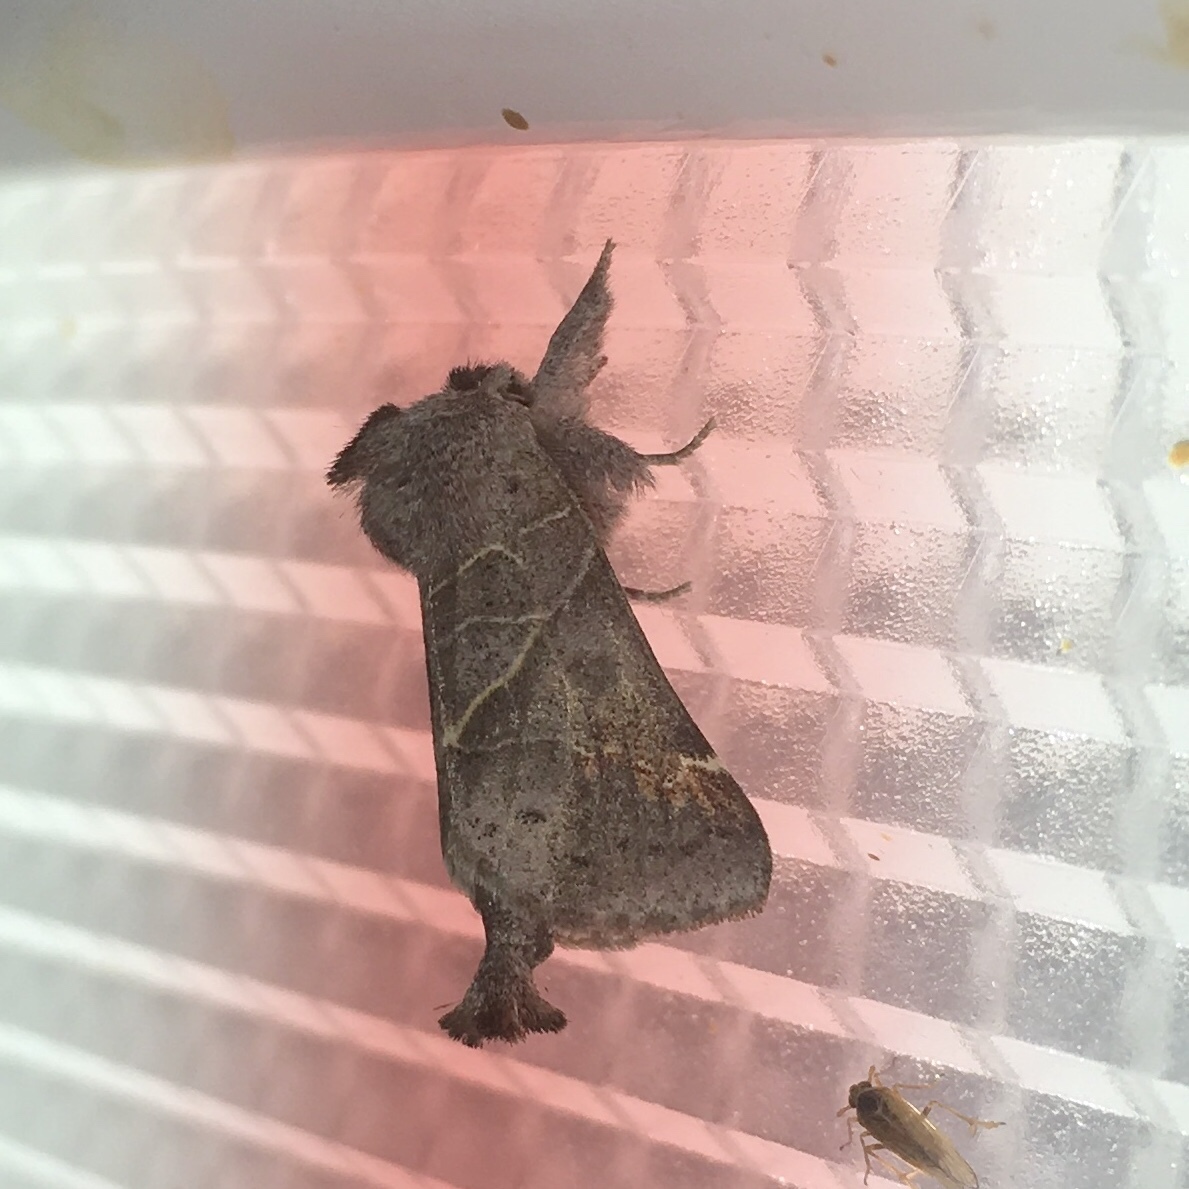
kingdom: Animalia
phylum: Arthropoda
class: Insecta
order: Lepidoptera
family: Notodontidae
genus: Clostera
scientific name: Clostera apicalis
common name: Apical prominent
